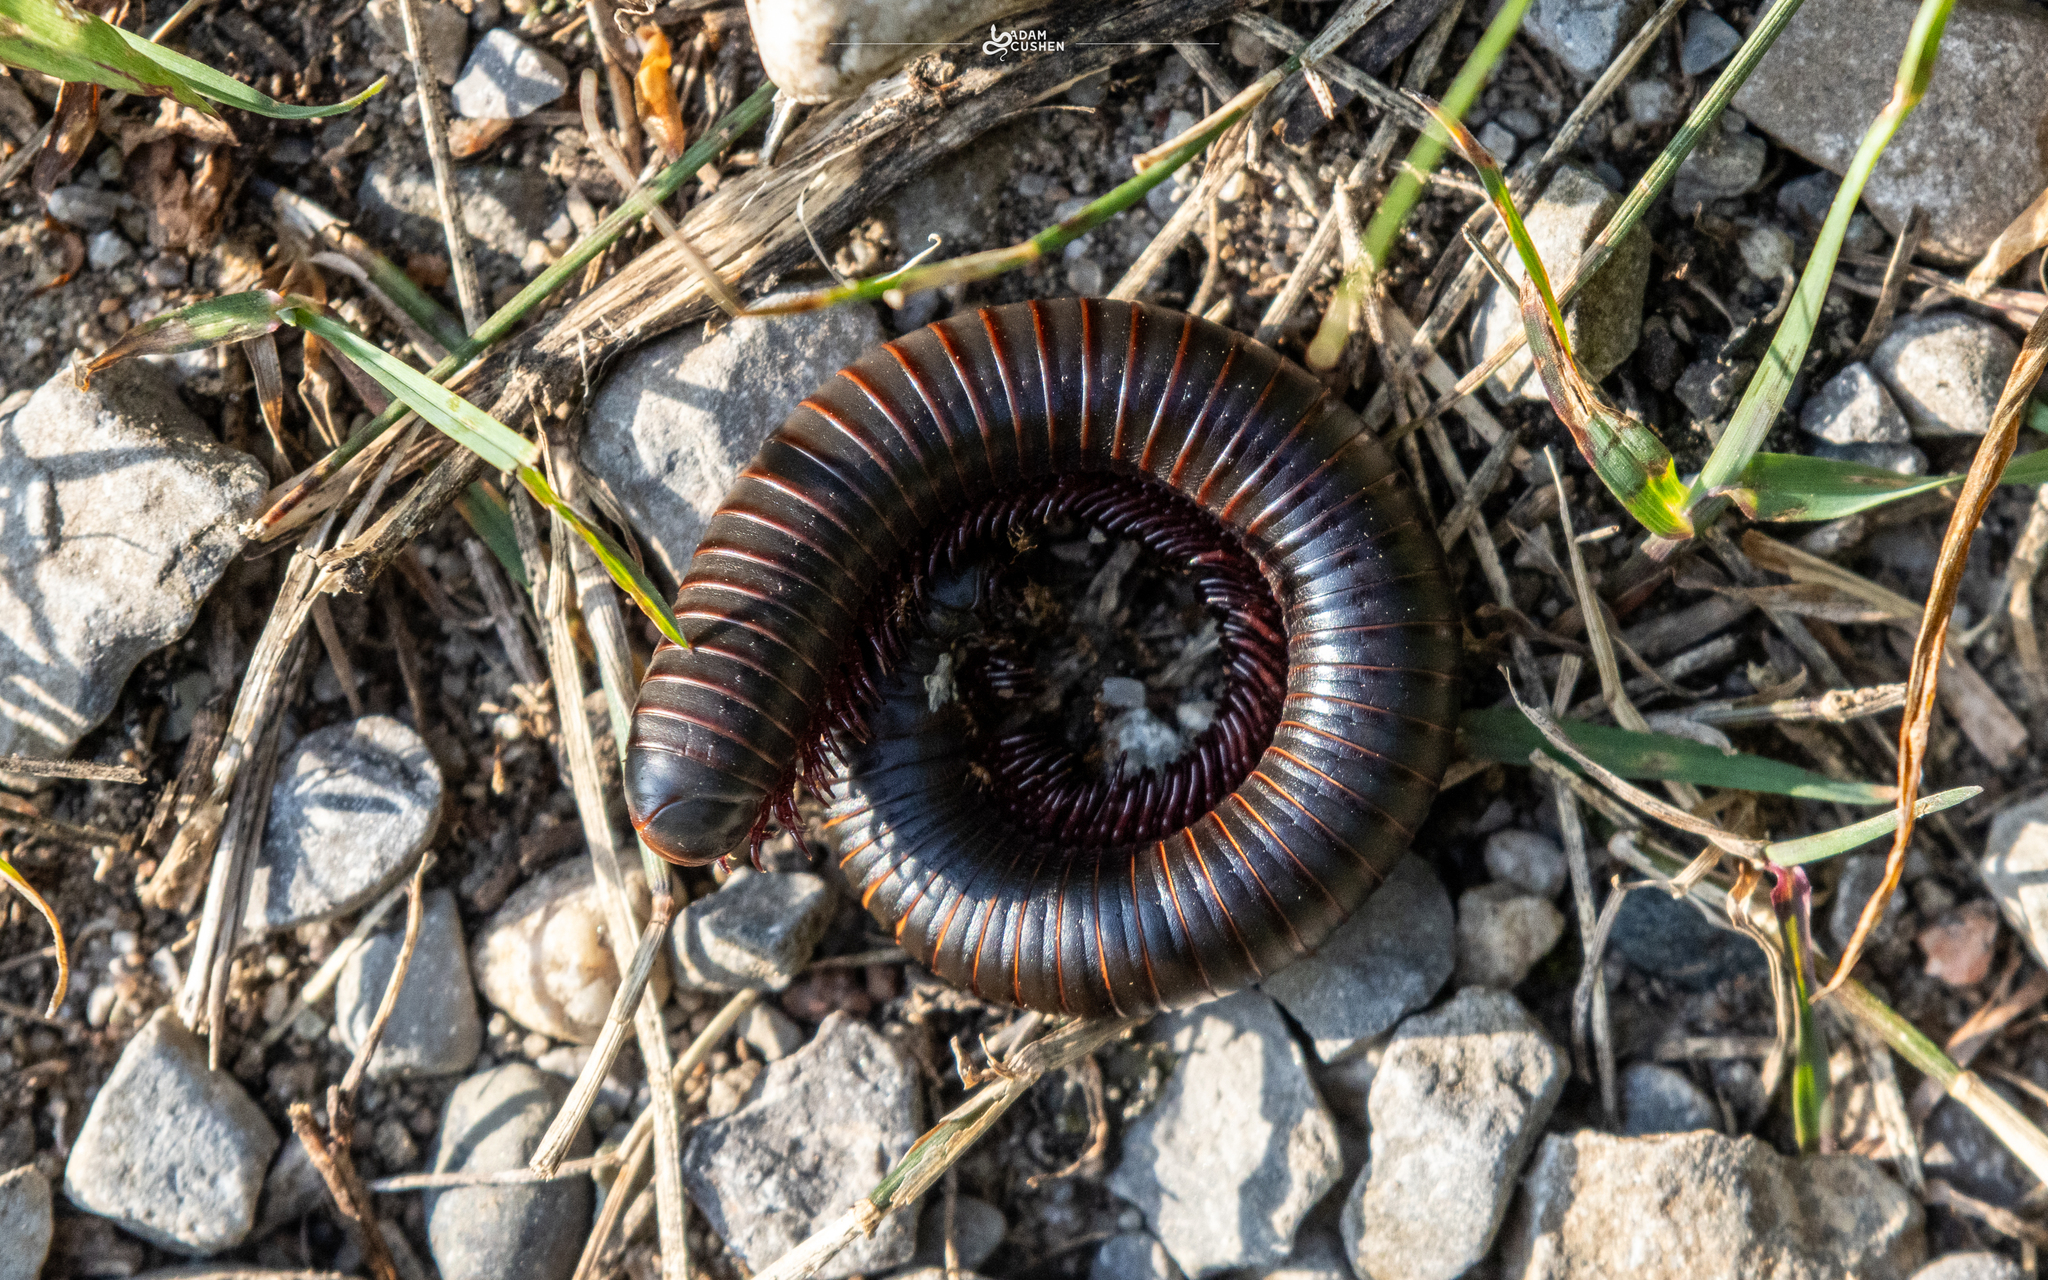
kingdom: Animalia
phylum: Arthropoda
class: Diplopoda
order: Spirobolida
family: Spirobolidae
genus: Narceus
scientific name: Narceus americanus
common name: American giant millipede
